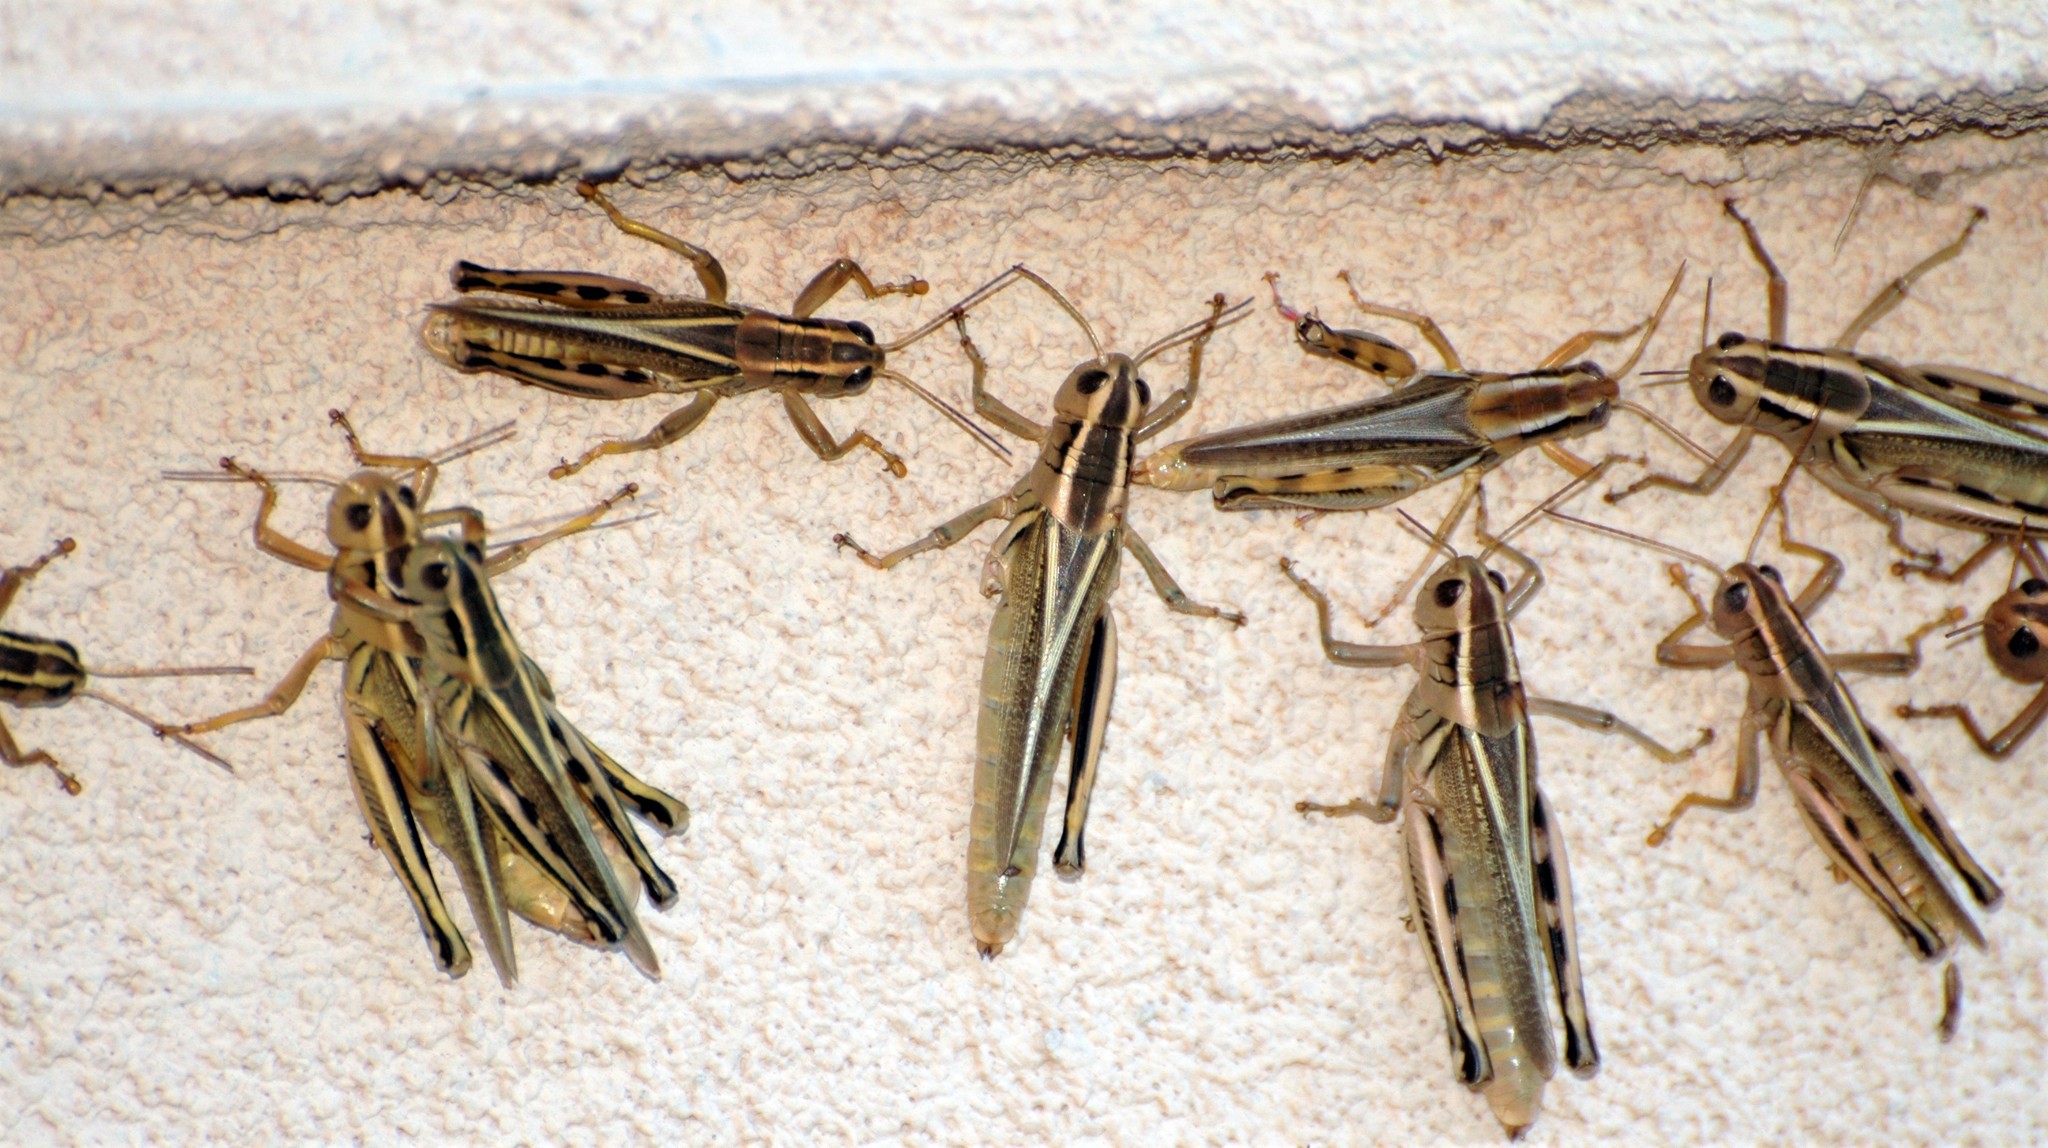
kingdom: Animalia
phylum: Arthropoda
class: Insecta
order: Orthoptera
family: Acrididae
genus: Melanoplus
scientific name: Melanoplus bivittatus
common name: Two-striped grasshopper
